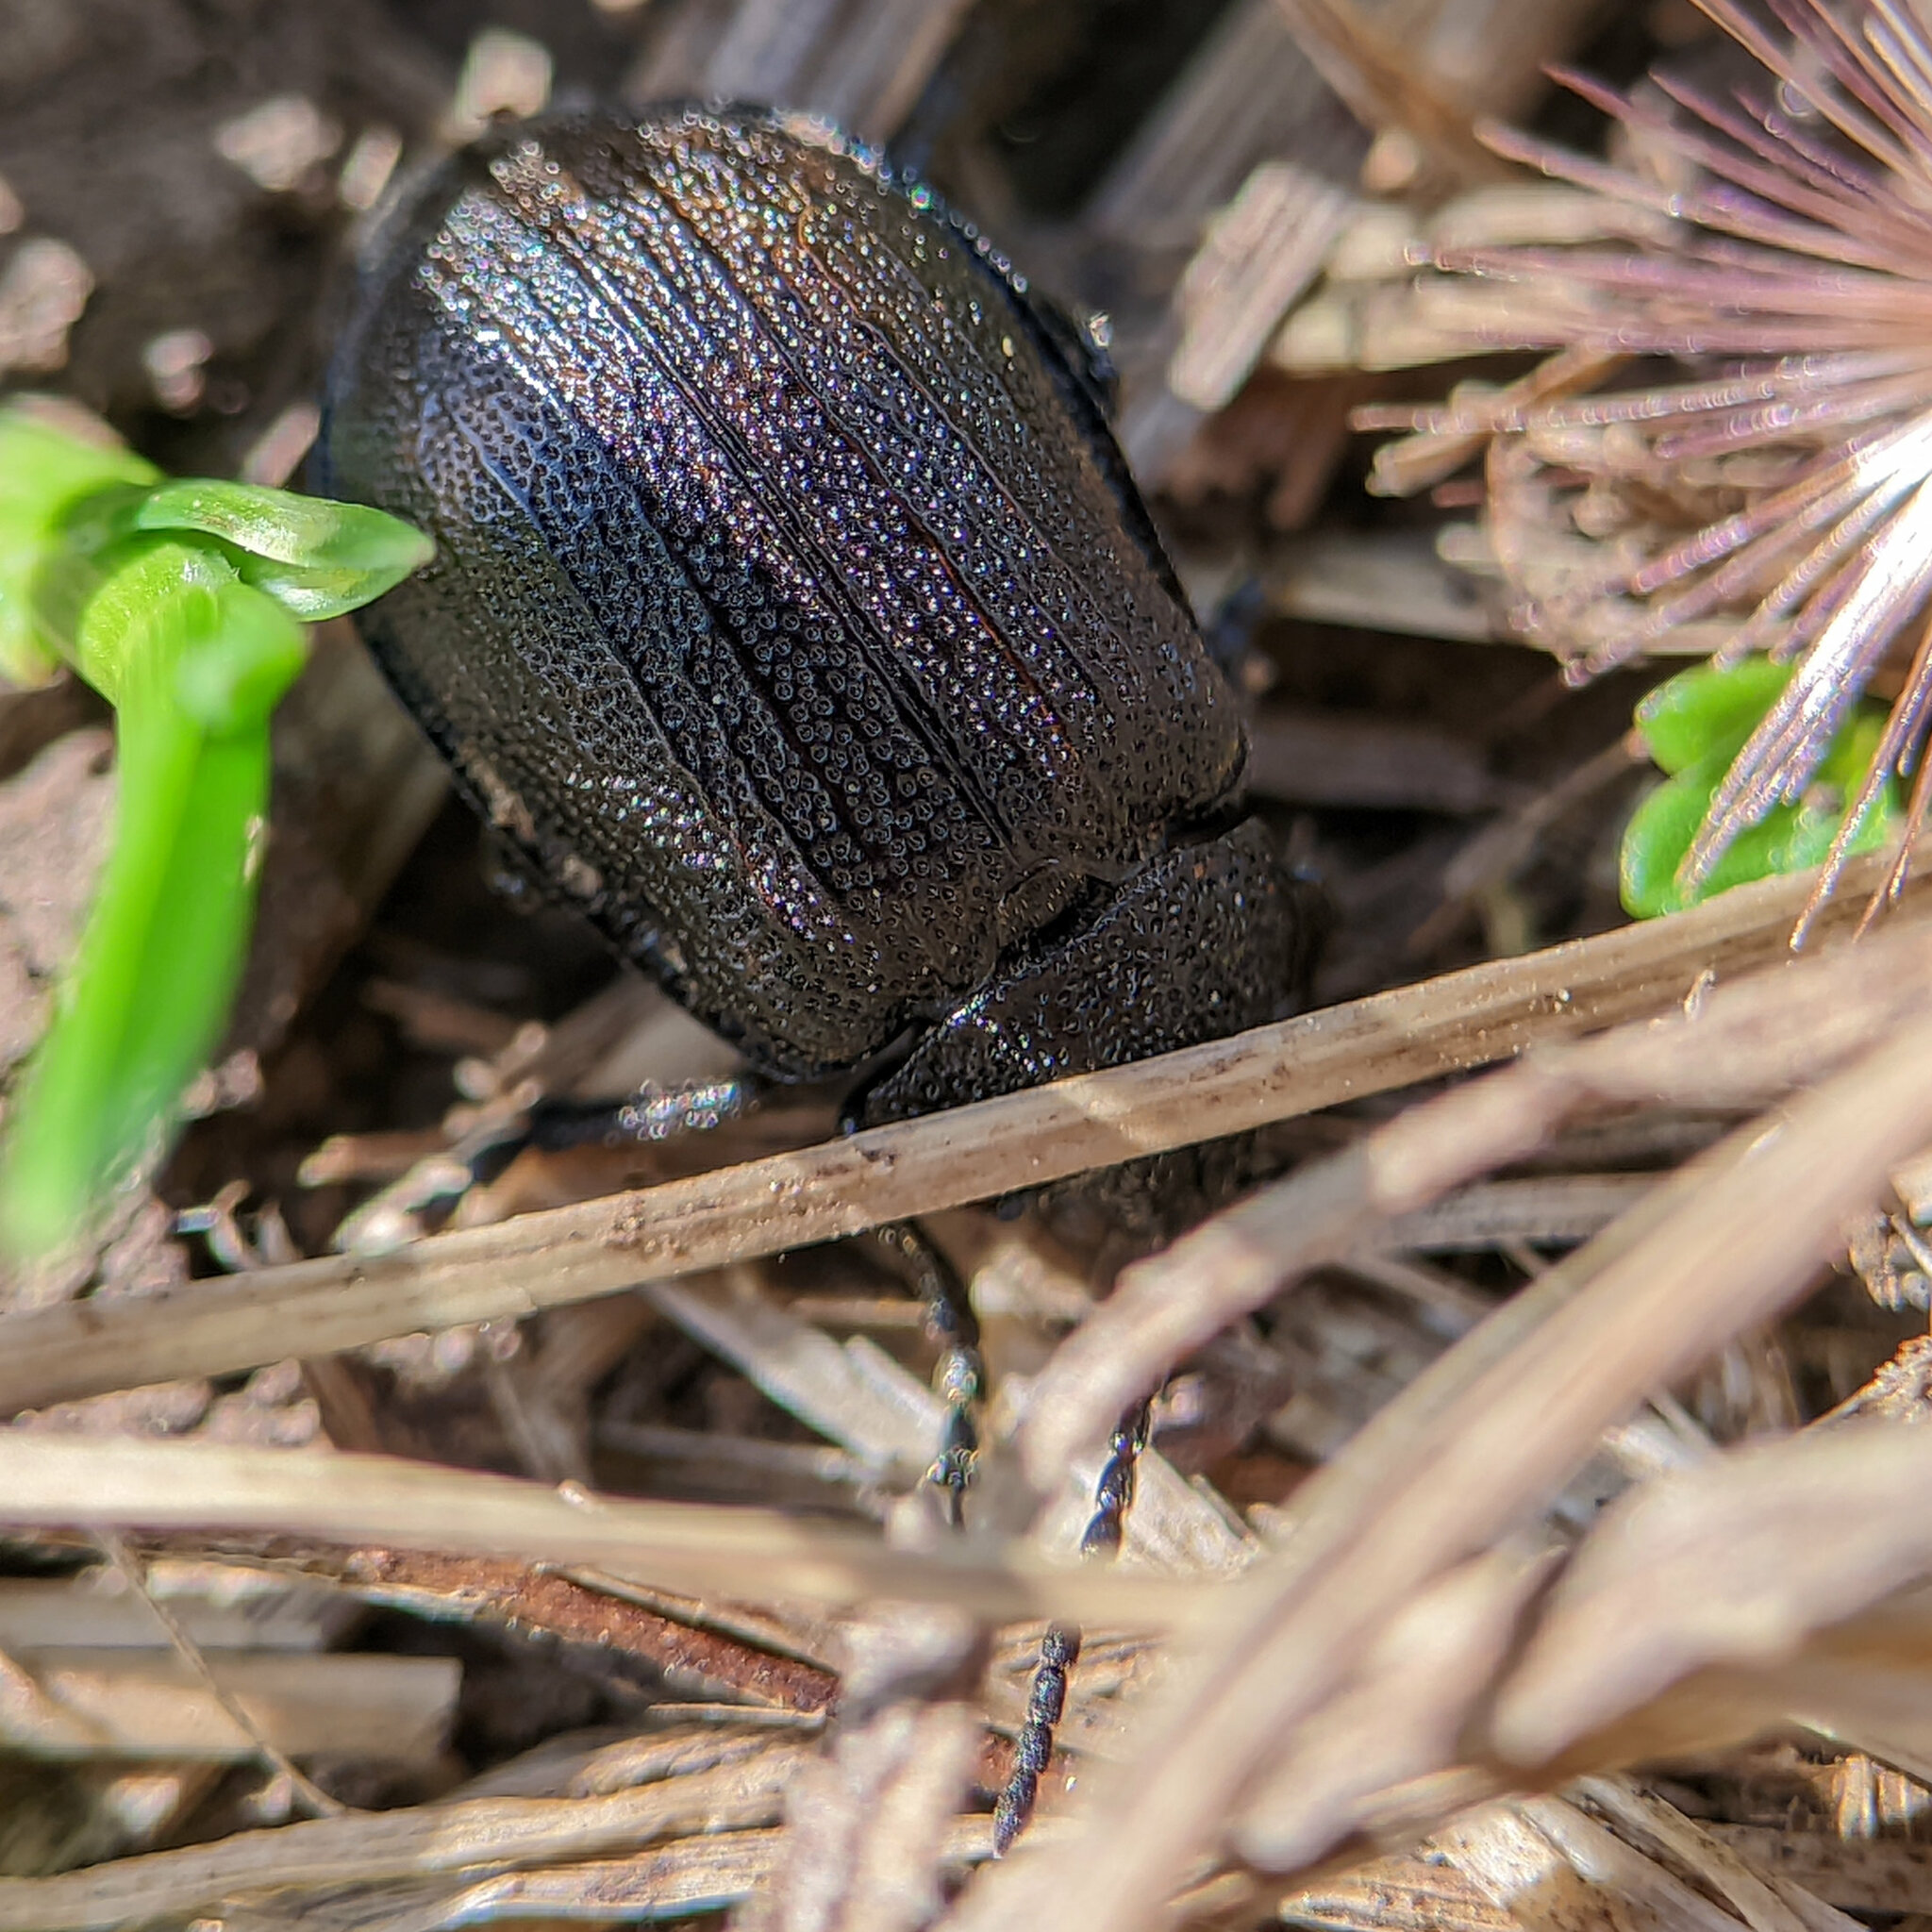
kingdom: Animalia
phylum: Arthropoda
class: Insecta
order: Coleoptera
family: Chrysomelidae
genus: Galeruca
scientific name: Galeruca pomonae
